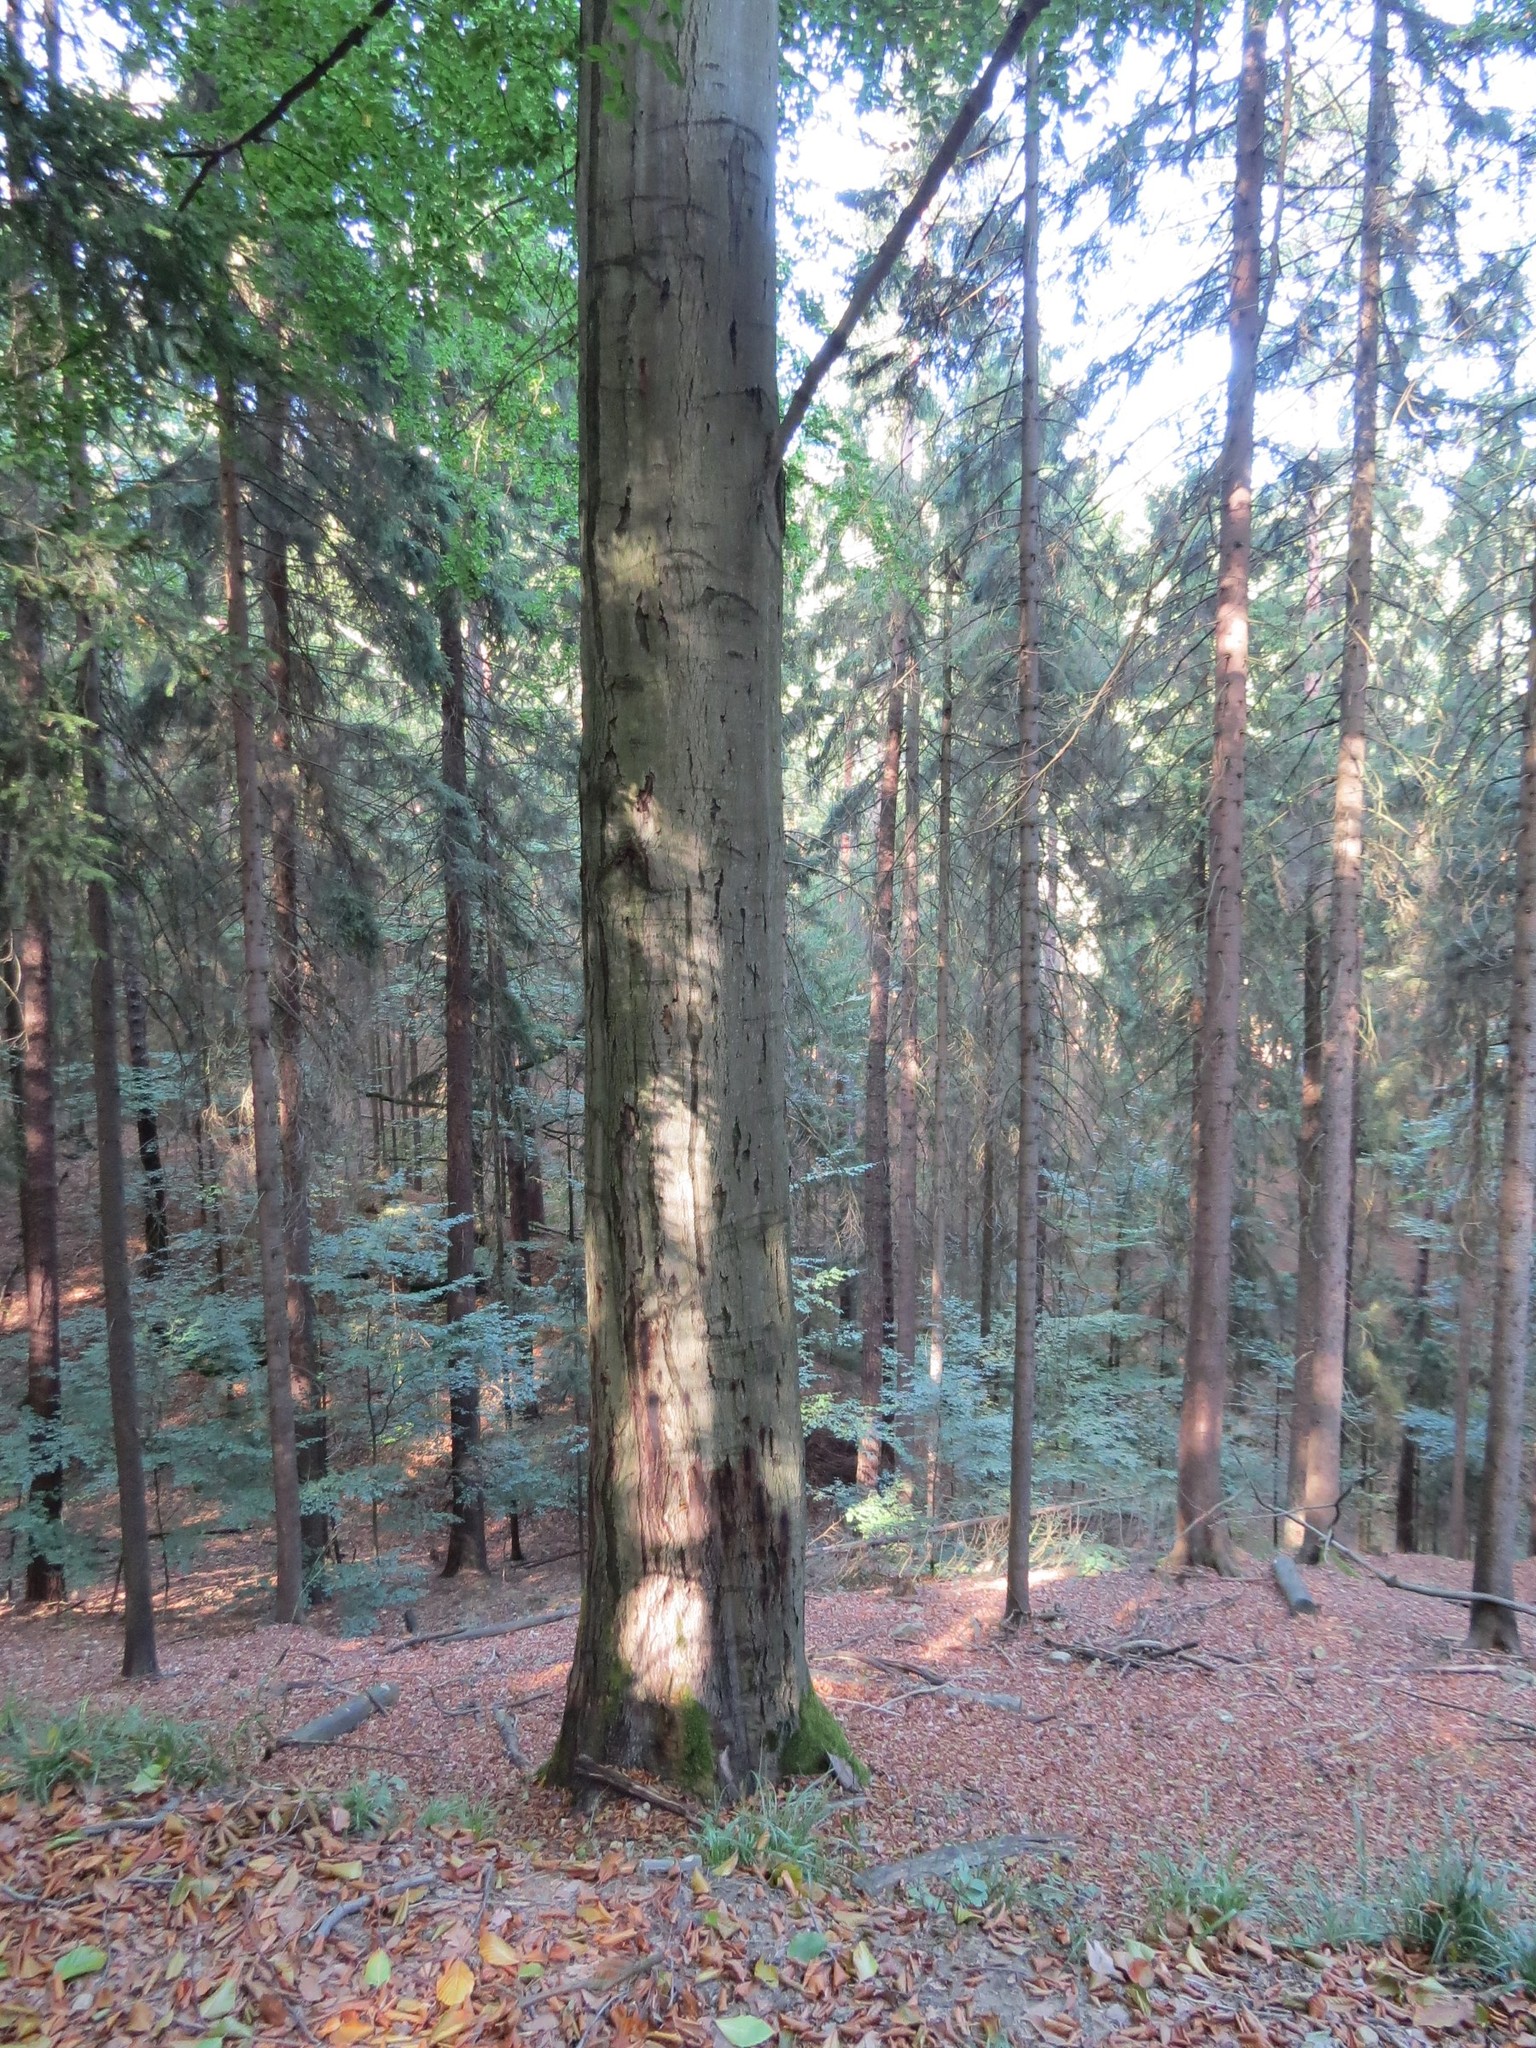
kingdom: Plantae
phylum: Tracheophyta
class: Magnoliopsida
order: Fagales
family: Fagaceae
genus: Fagus
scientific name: Fagus sylvatica
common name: Beech
